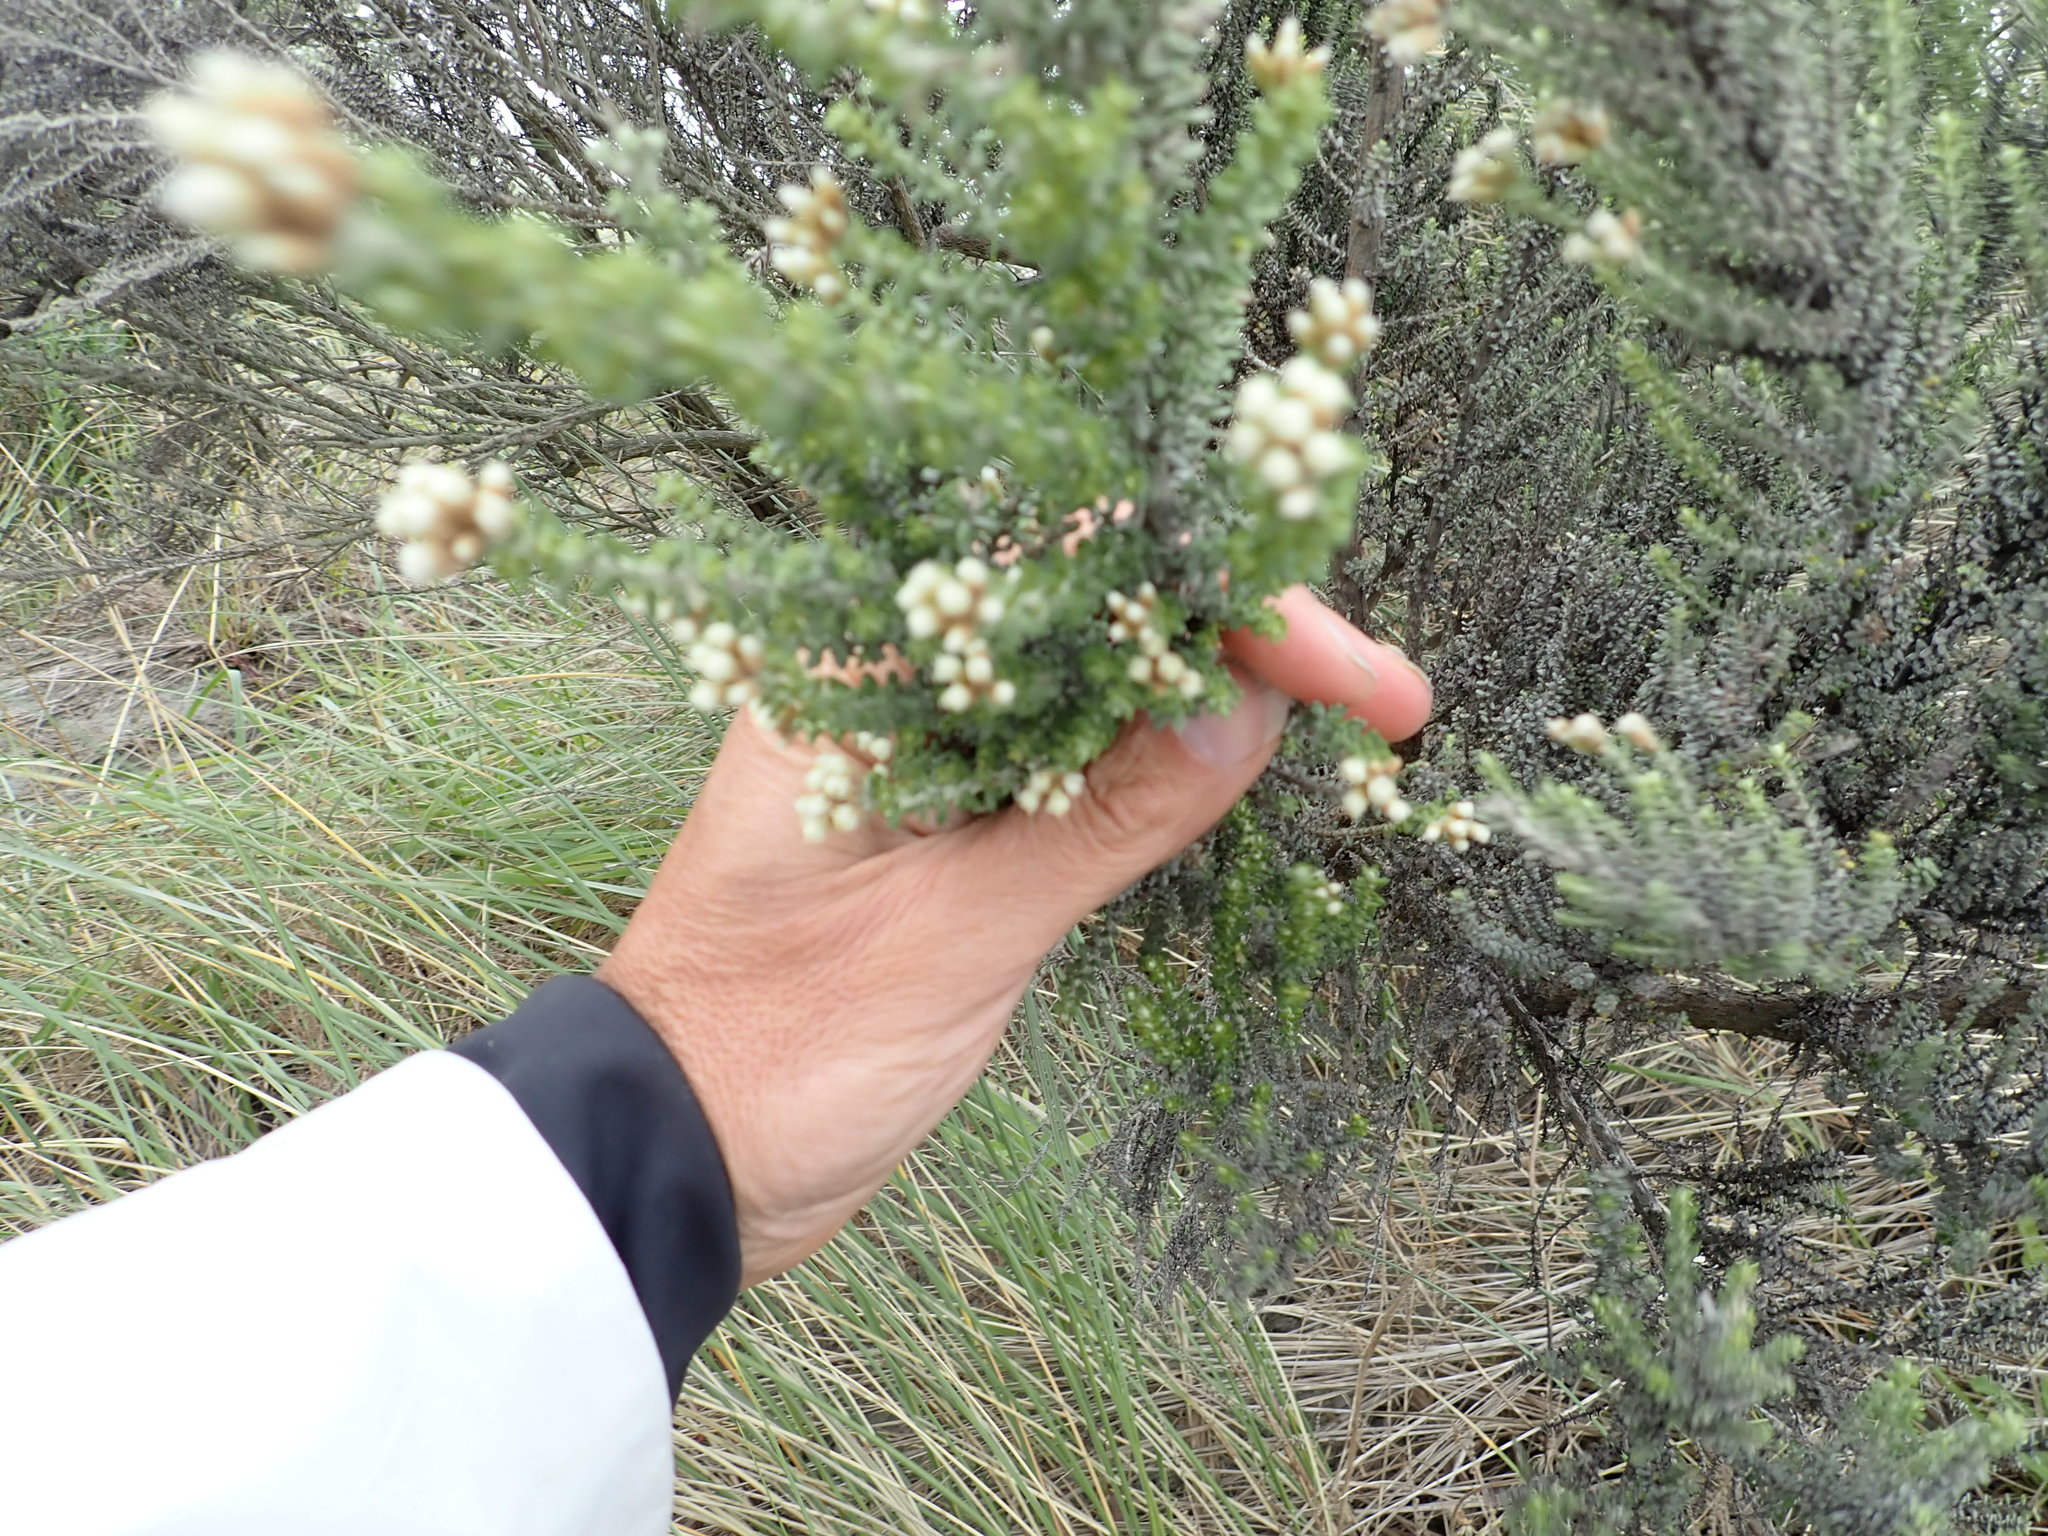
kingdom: Plantae
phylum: Tracheophyta
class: Magnoliopsida
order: Asterales
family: Asteraceae
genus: Ozothamnus
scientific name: Ozothamnus leptophyllus
